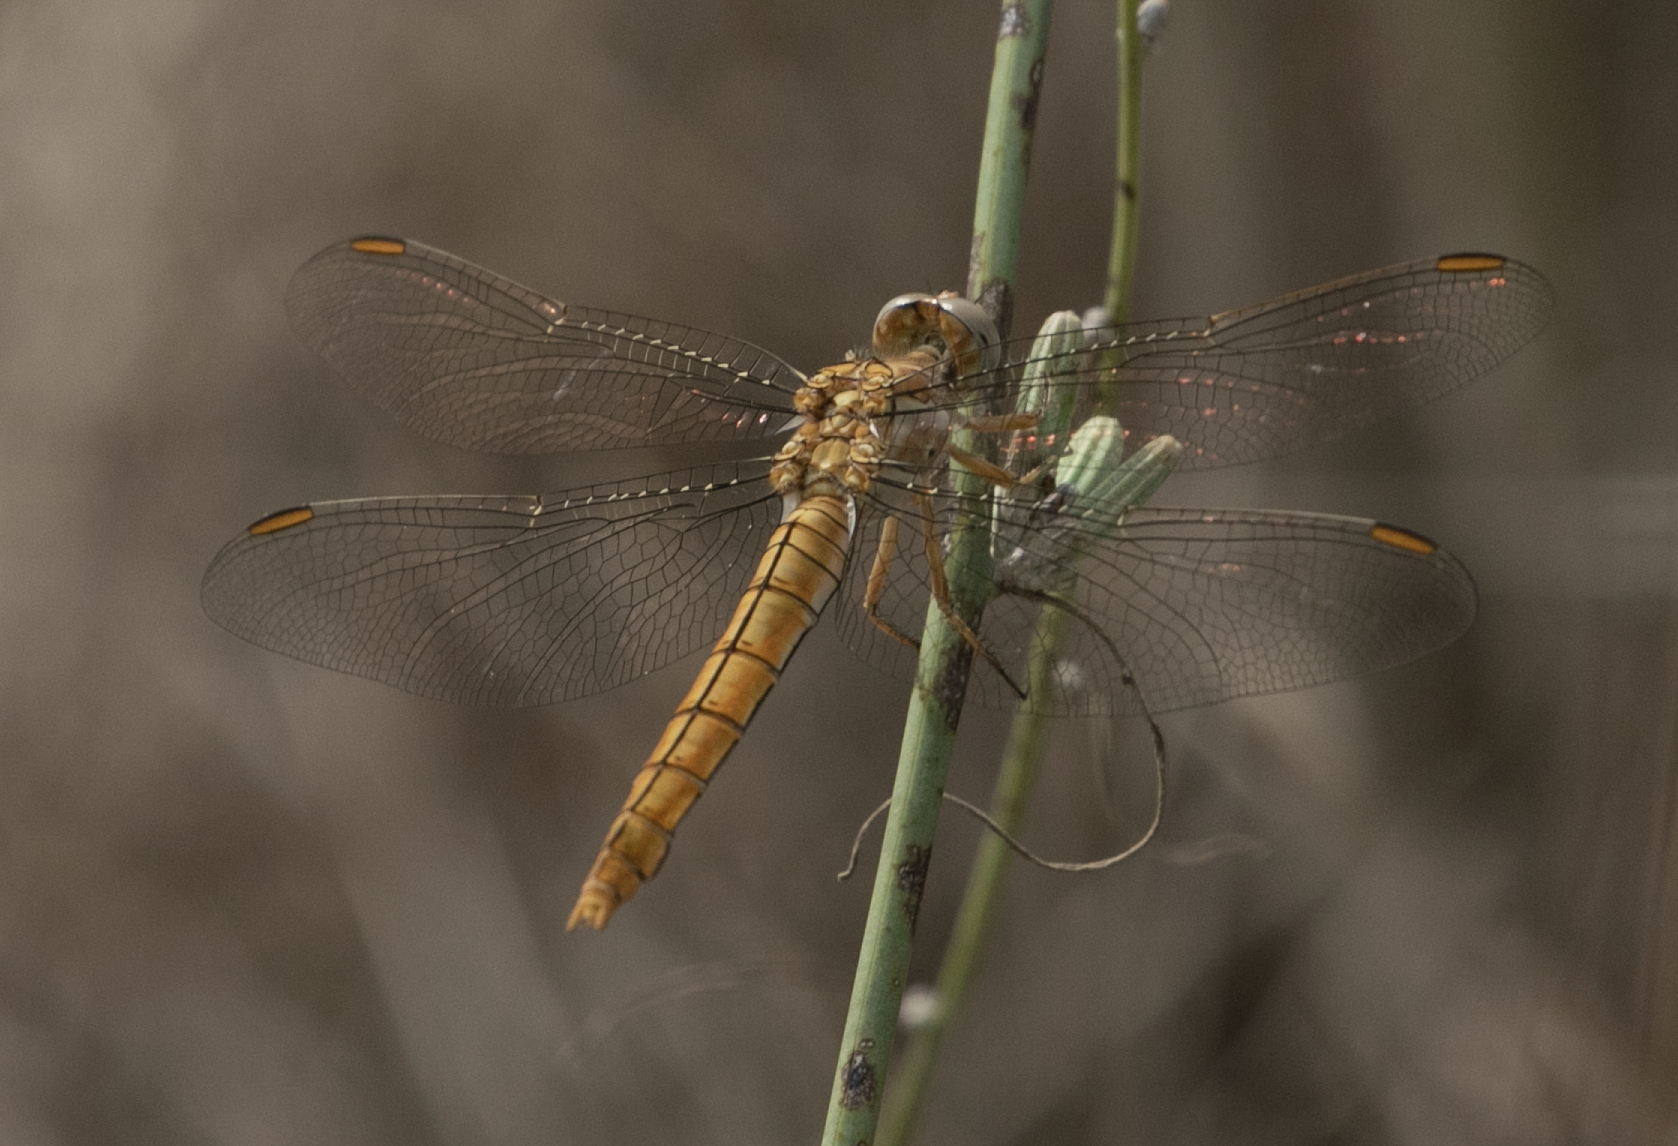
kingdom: Animalia
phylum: Arthropoda
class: Insecta
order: Odonata
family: Libellulidae
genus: Orthetrum
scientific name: Orthetrum brunneum
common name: Southern skimmer
